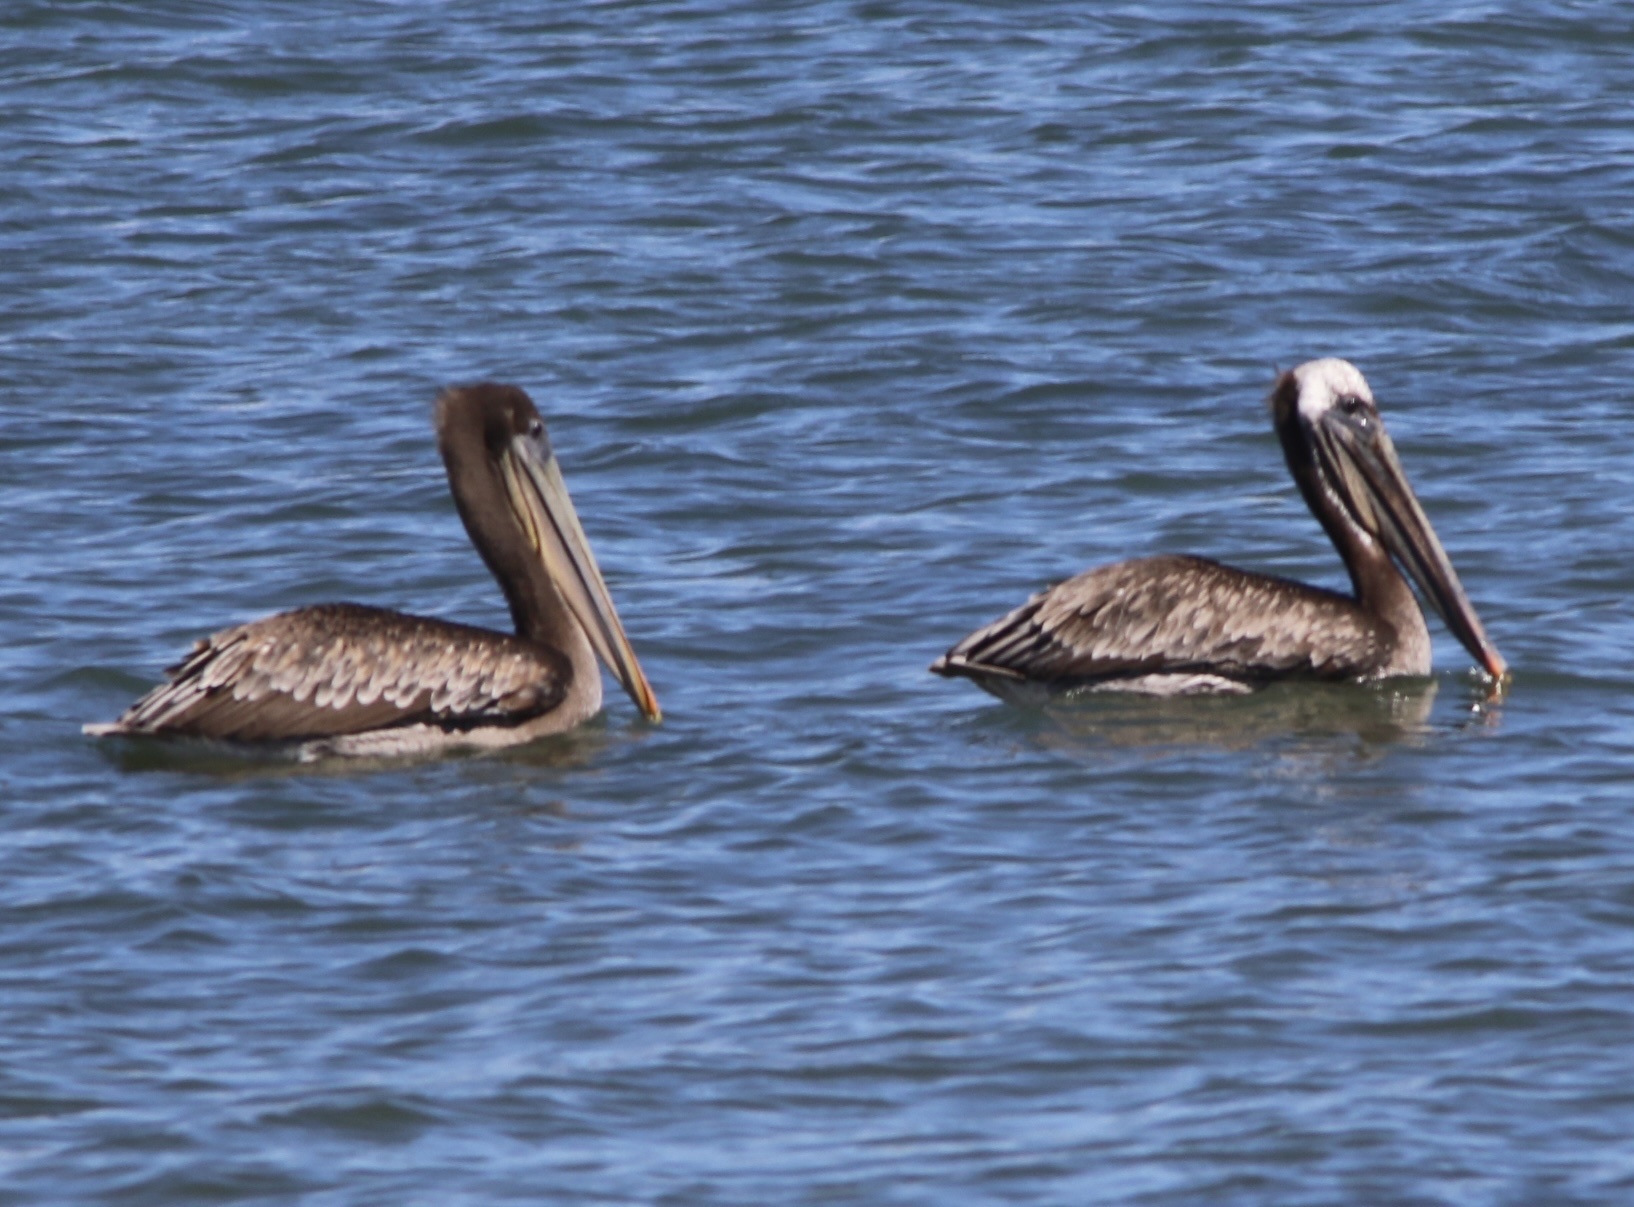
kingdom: Animalia
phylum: Chordata
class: Aves
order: Pelecaniformes
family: Pelecanidae
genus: Pelecanus
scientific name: Pelecanus occidentalis
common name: Brown pelican
